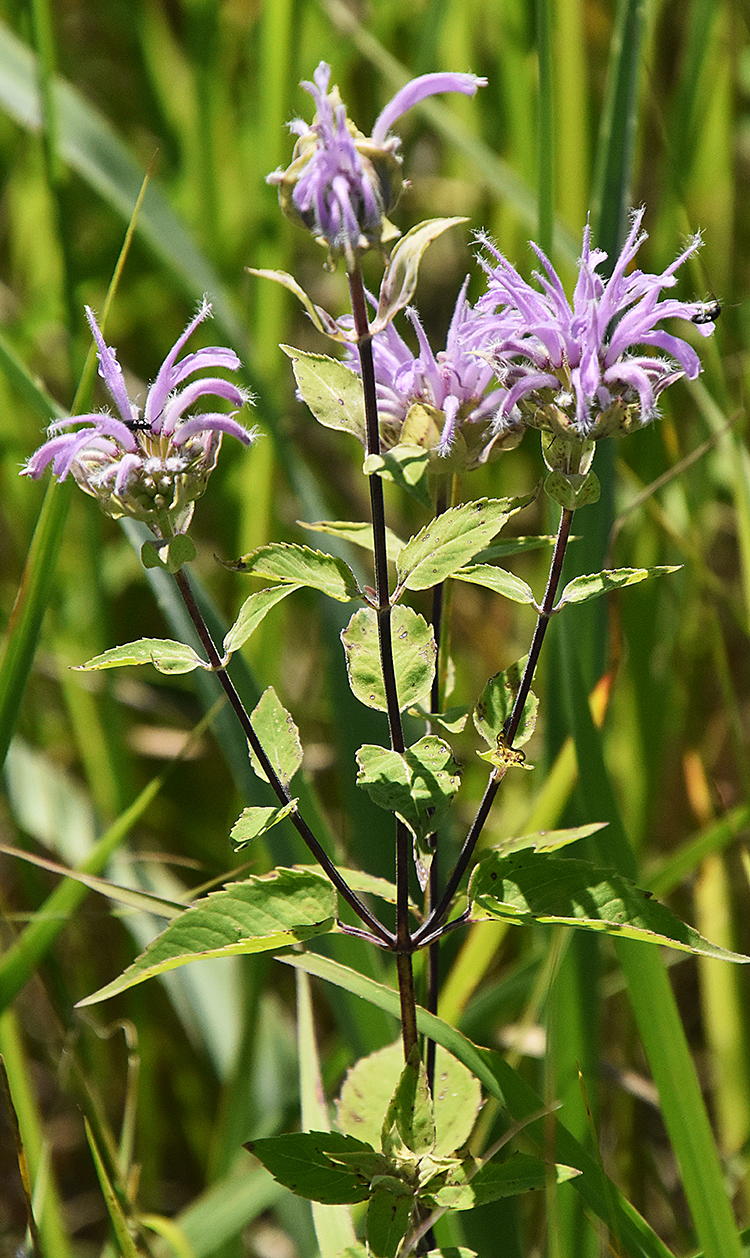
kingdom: Plantae
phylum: Tracheophyta
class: Magnoliopsida
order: Lamiales
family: Lamiaceae
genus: Monarda
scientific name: Monarda fistulosa
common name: Purple beebalm
